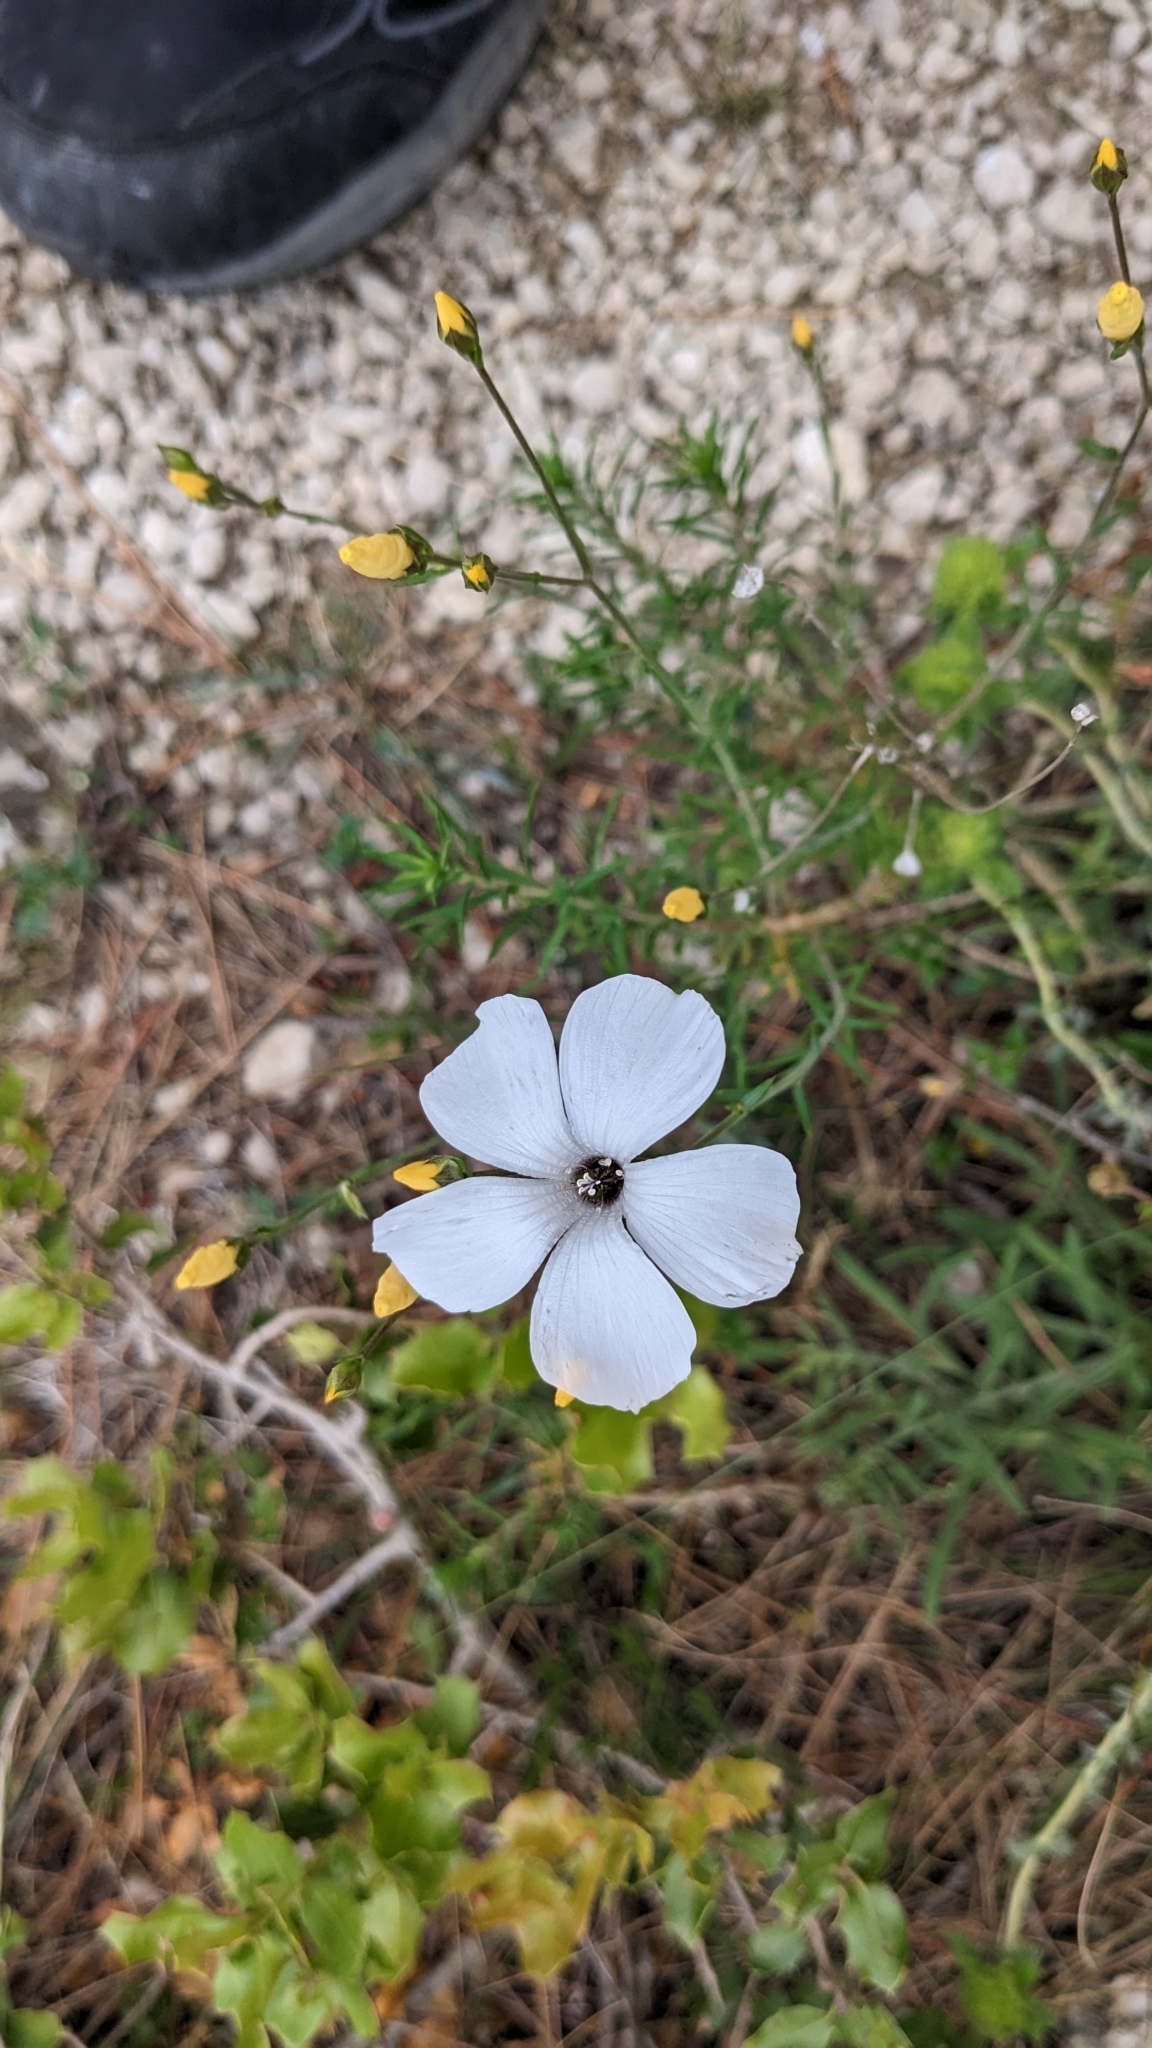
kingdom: Plantae
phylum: Tracheophyta
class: Magnoliopsida
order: Malpighiales
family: Linaceae
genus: Linum
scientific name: Linum suffruticosum
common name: White flax
